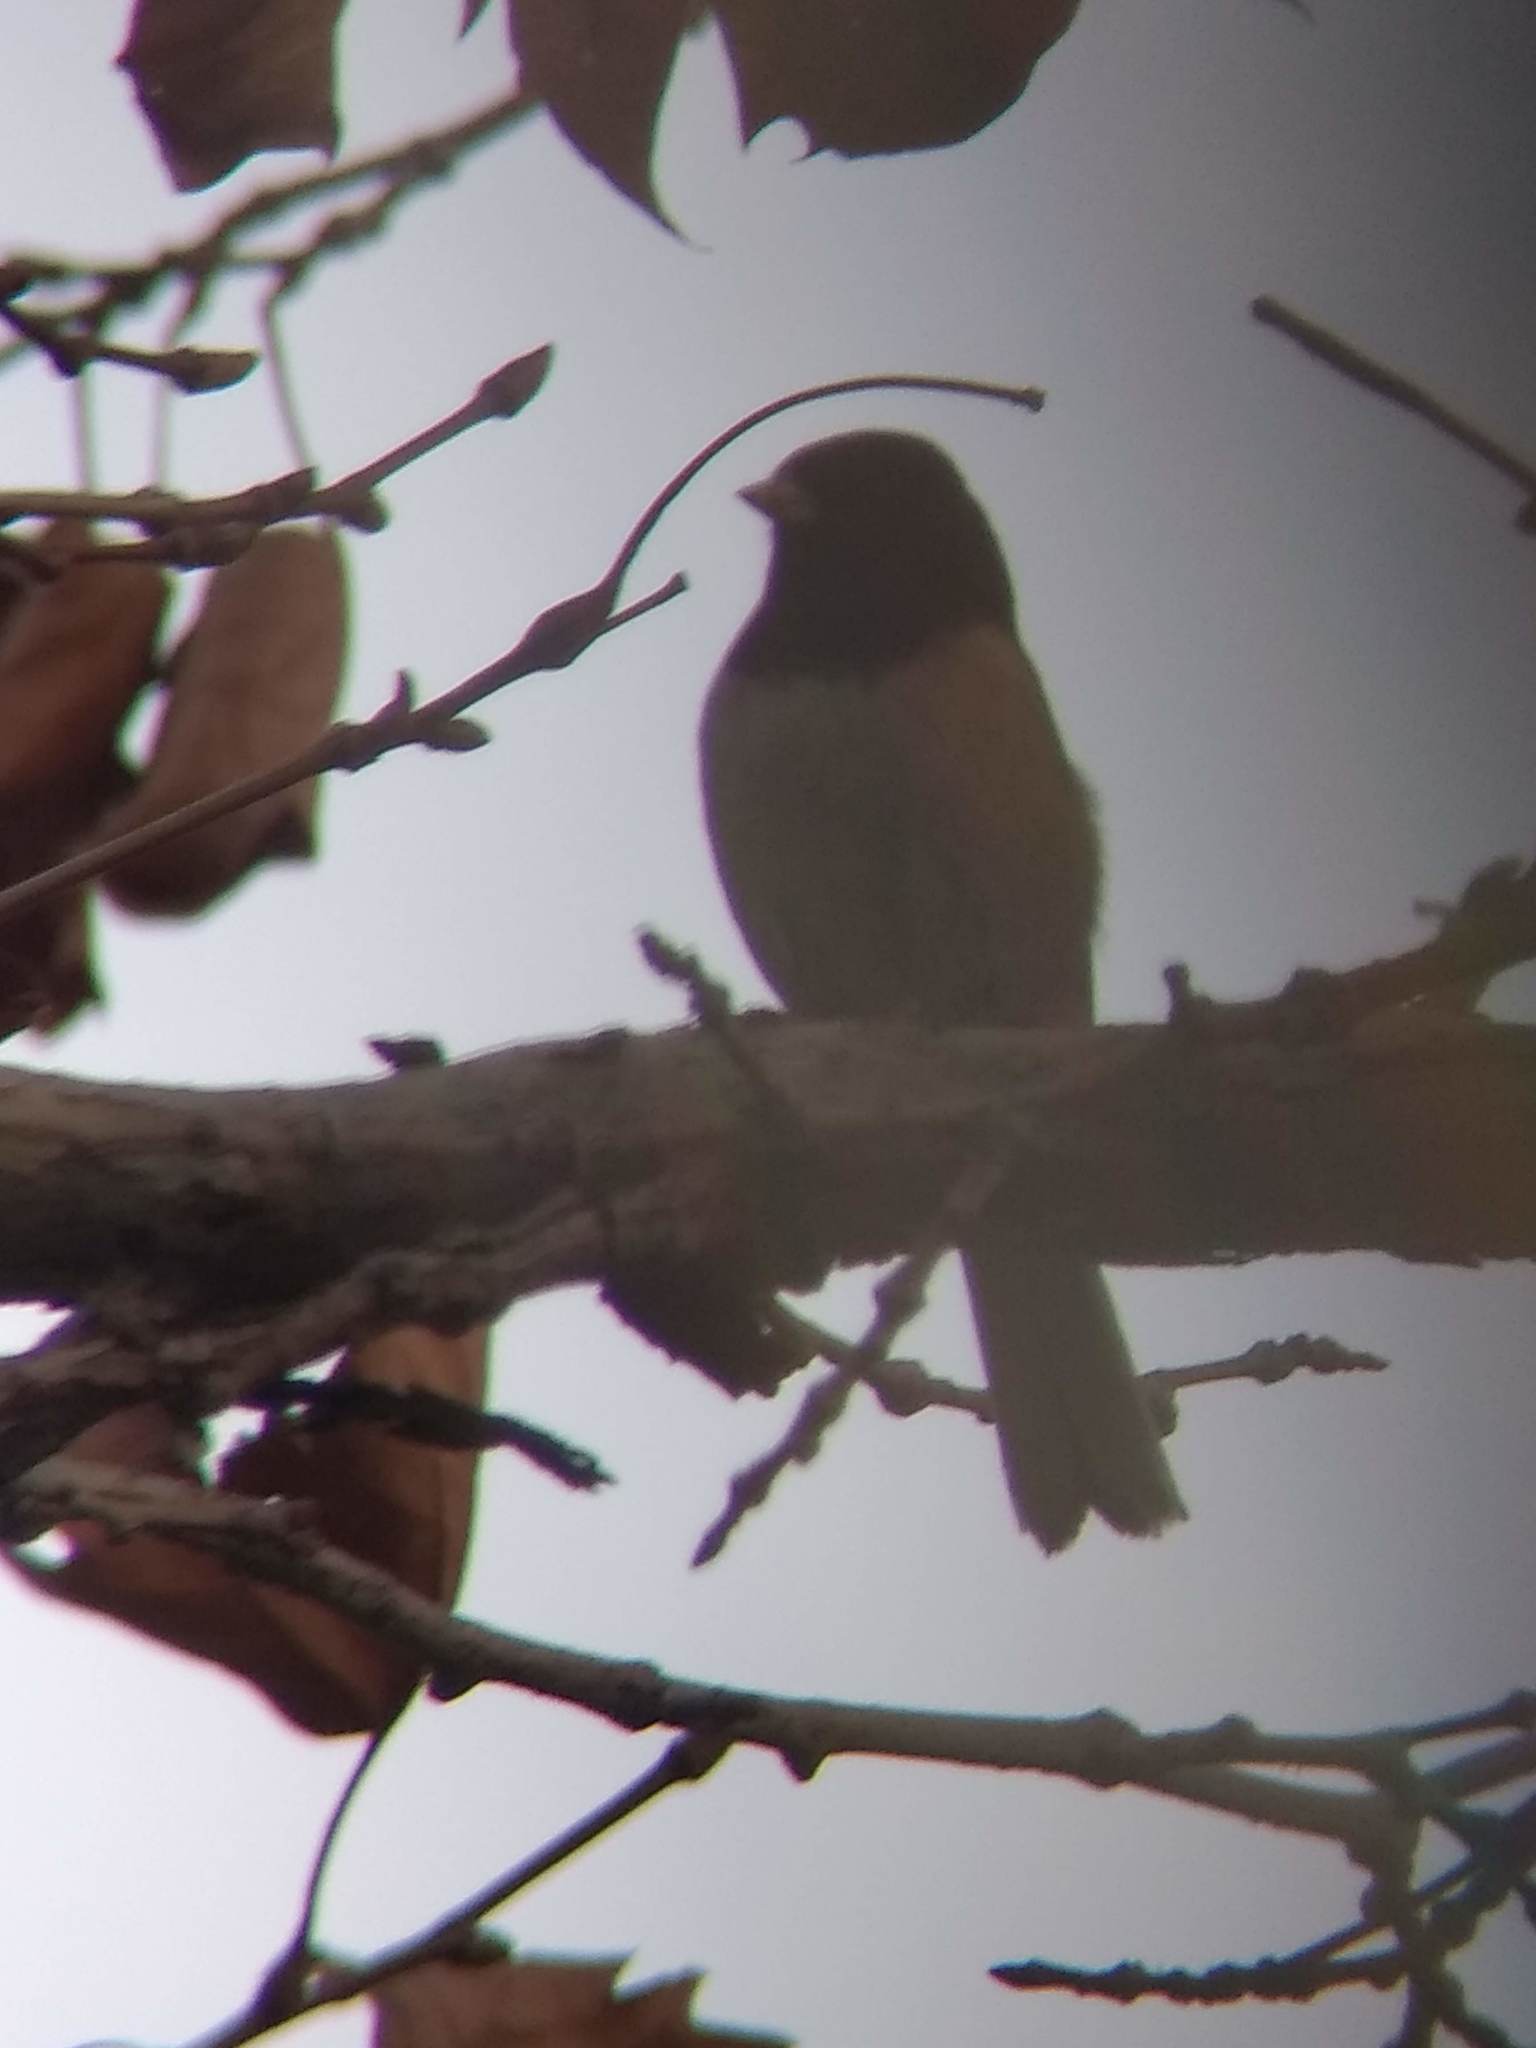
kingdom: Animalia
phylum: Chordata
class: Aves
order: Passeriformes
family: Passerellidae
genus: Junco
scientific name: Junco hyemalis
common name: Dark-eyed junco
